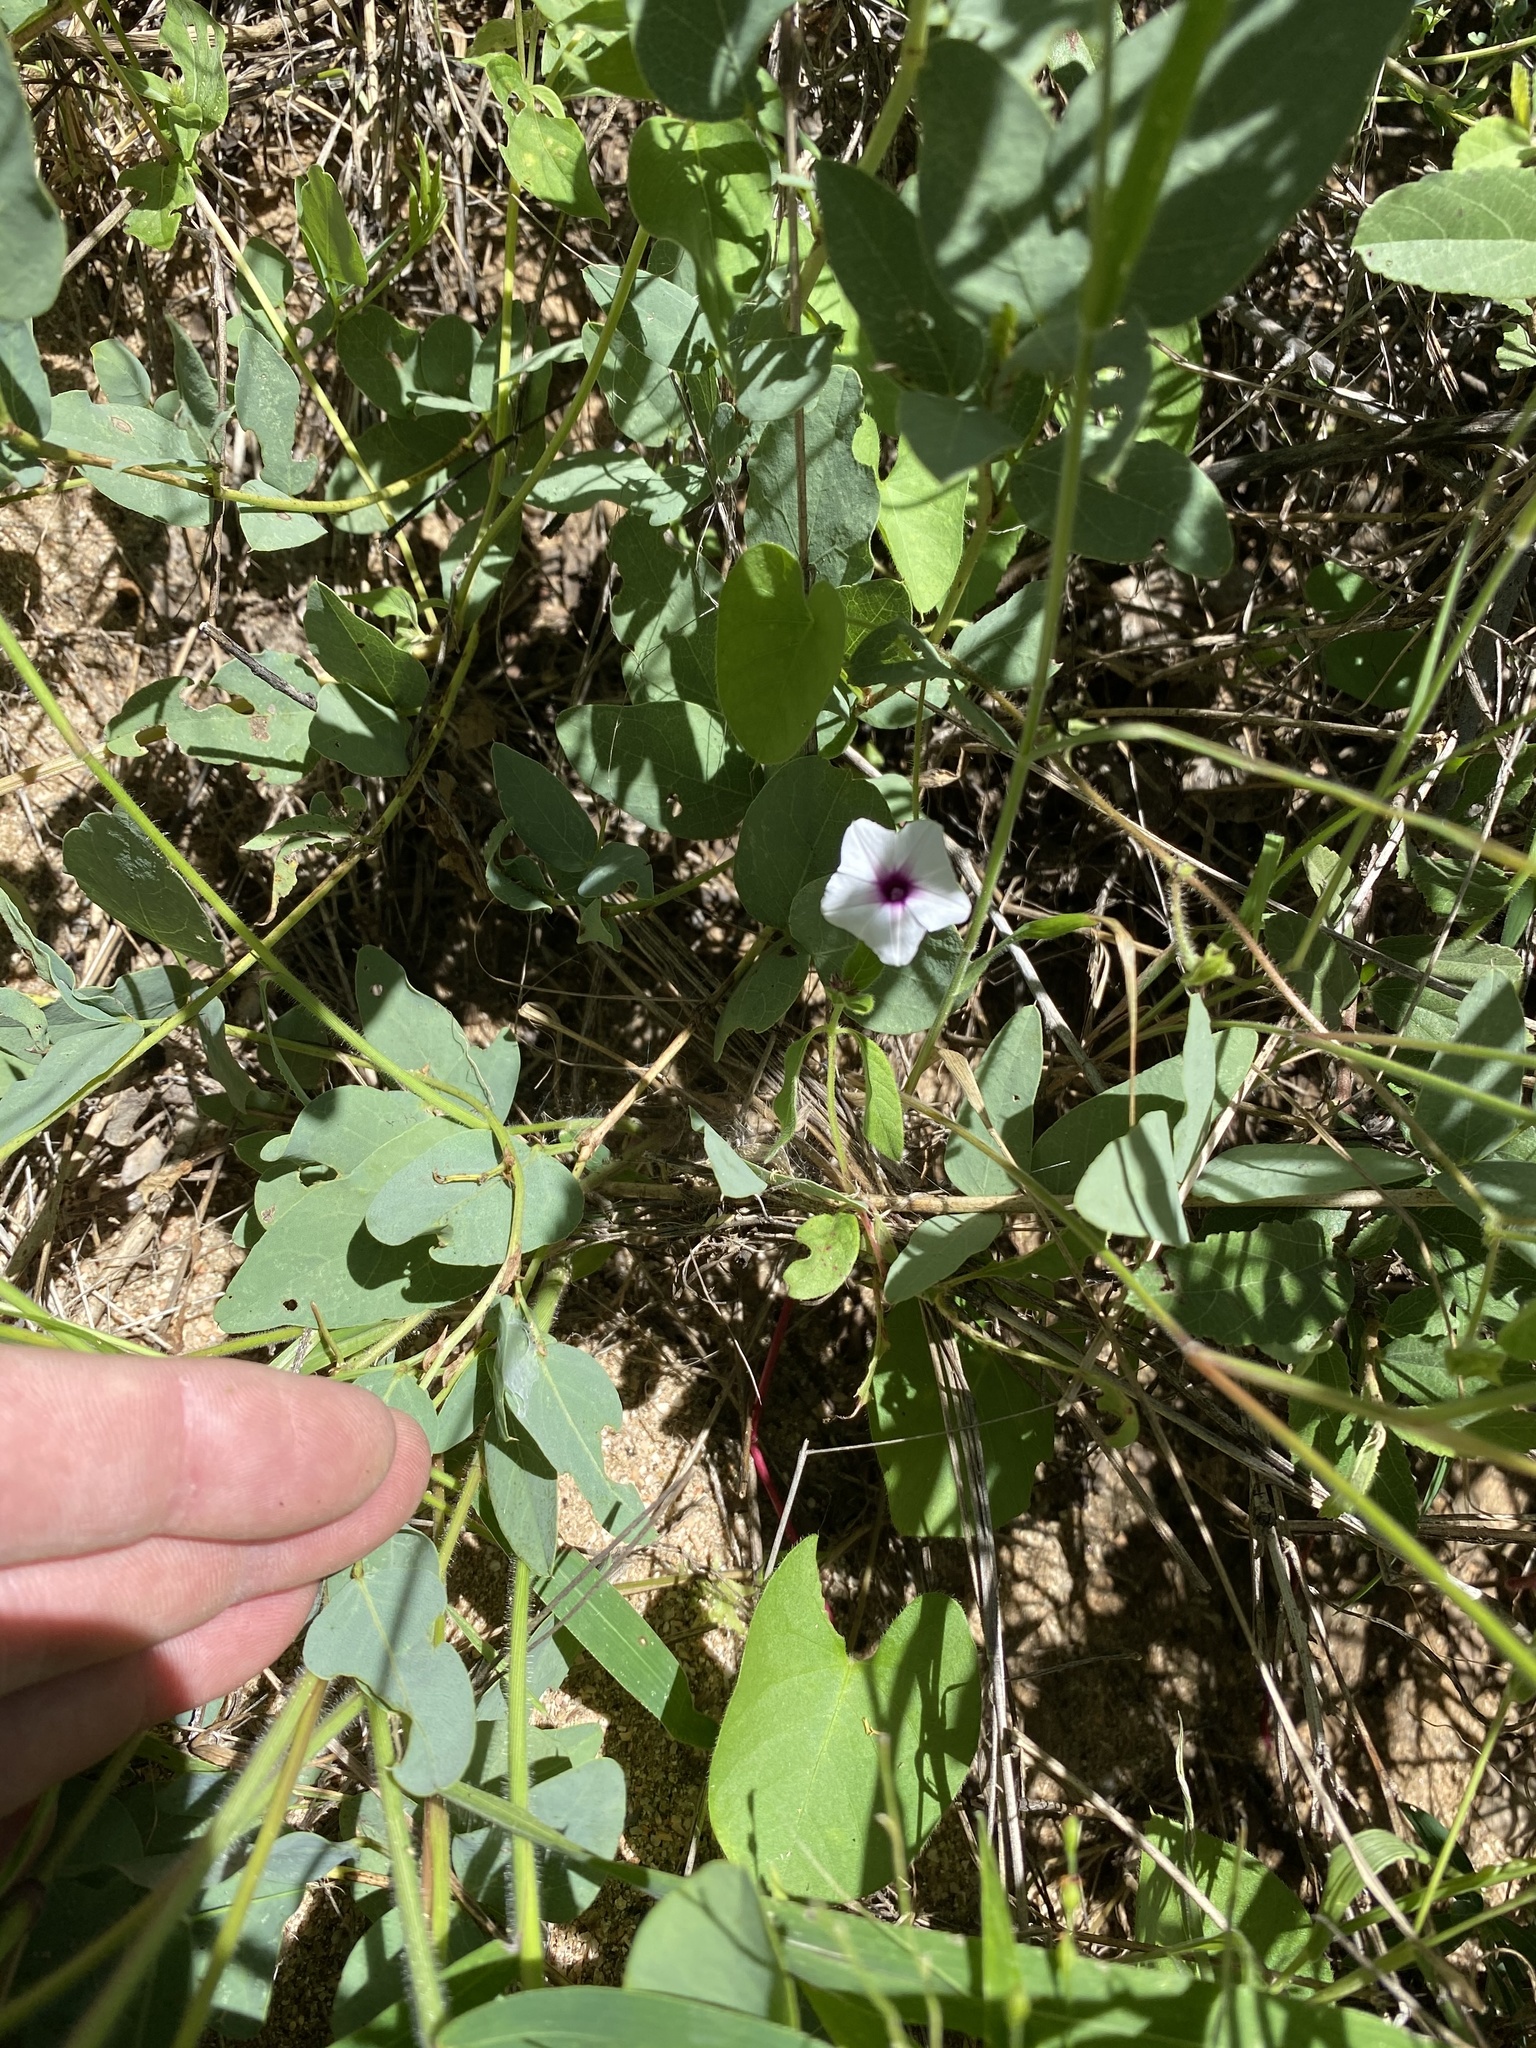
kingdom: Plantae
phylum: Tracheophyta
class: Magnoliopsida
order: Solanales
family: Convolvulaceae
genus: Ipomoea
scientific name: Ipomoea sinensis
